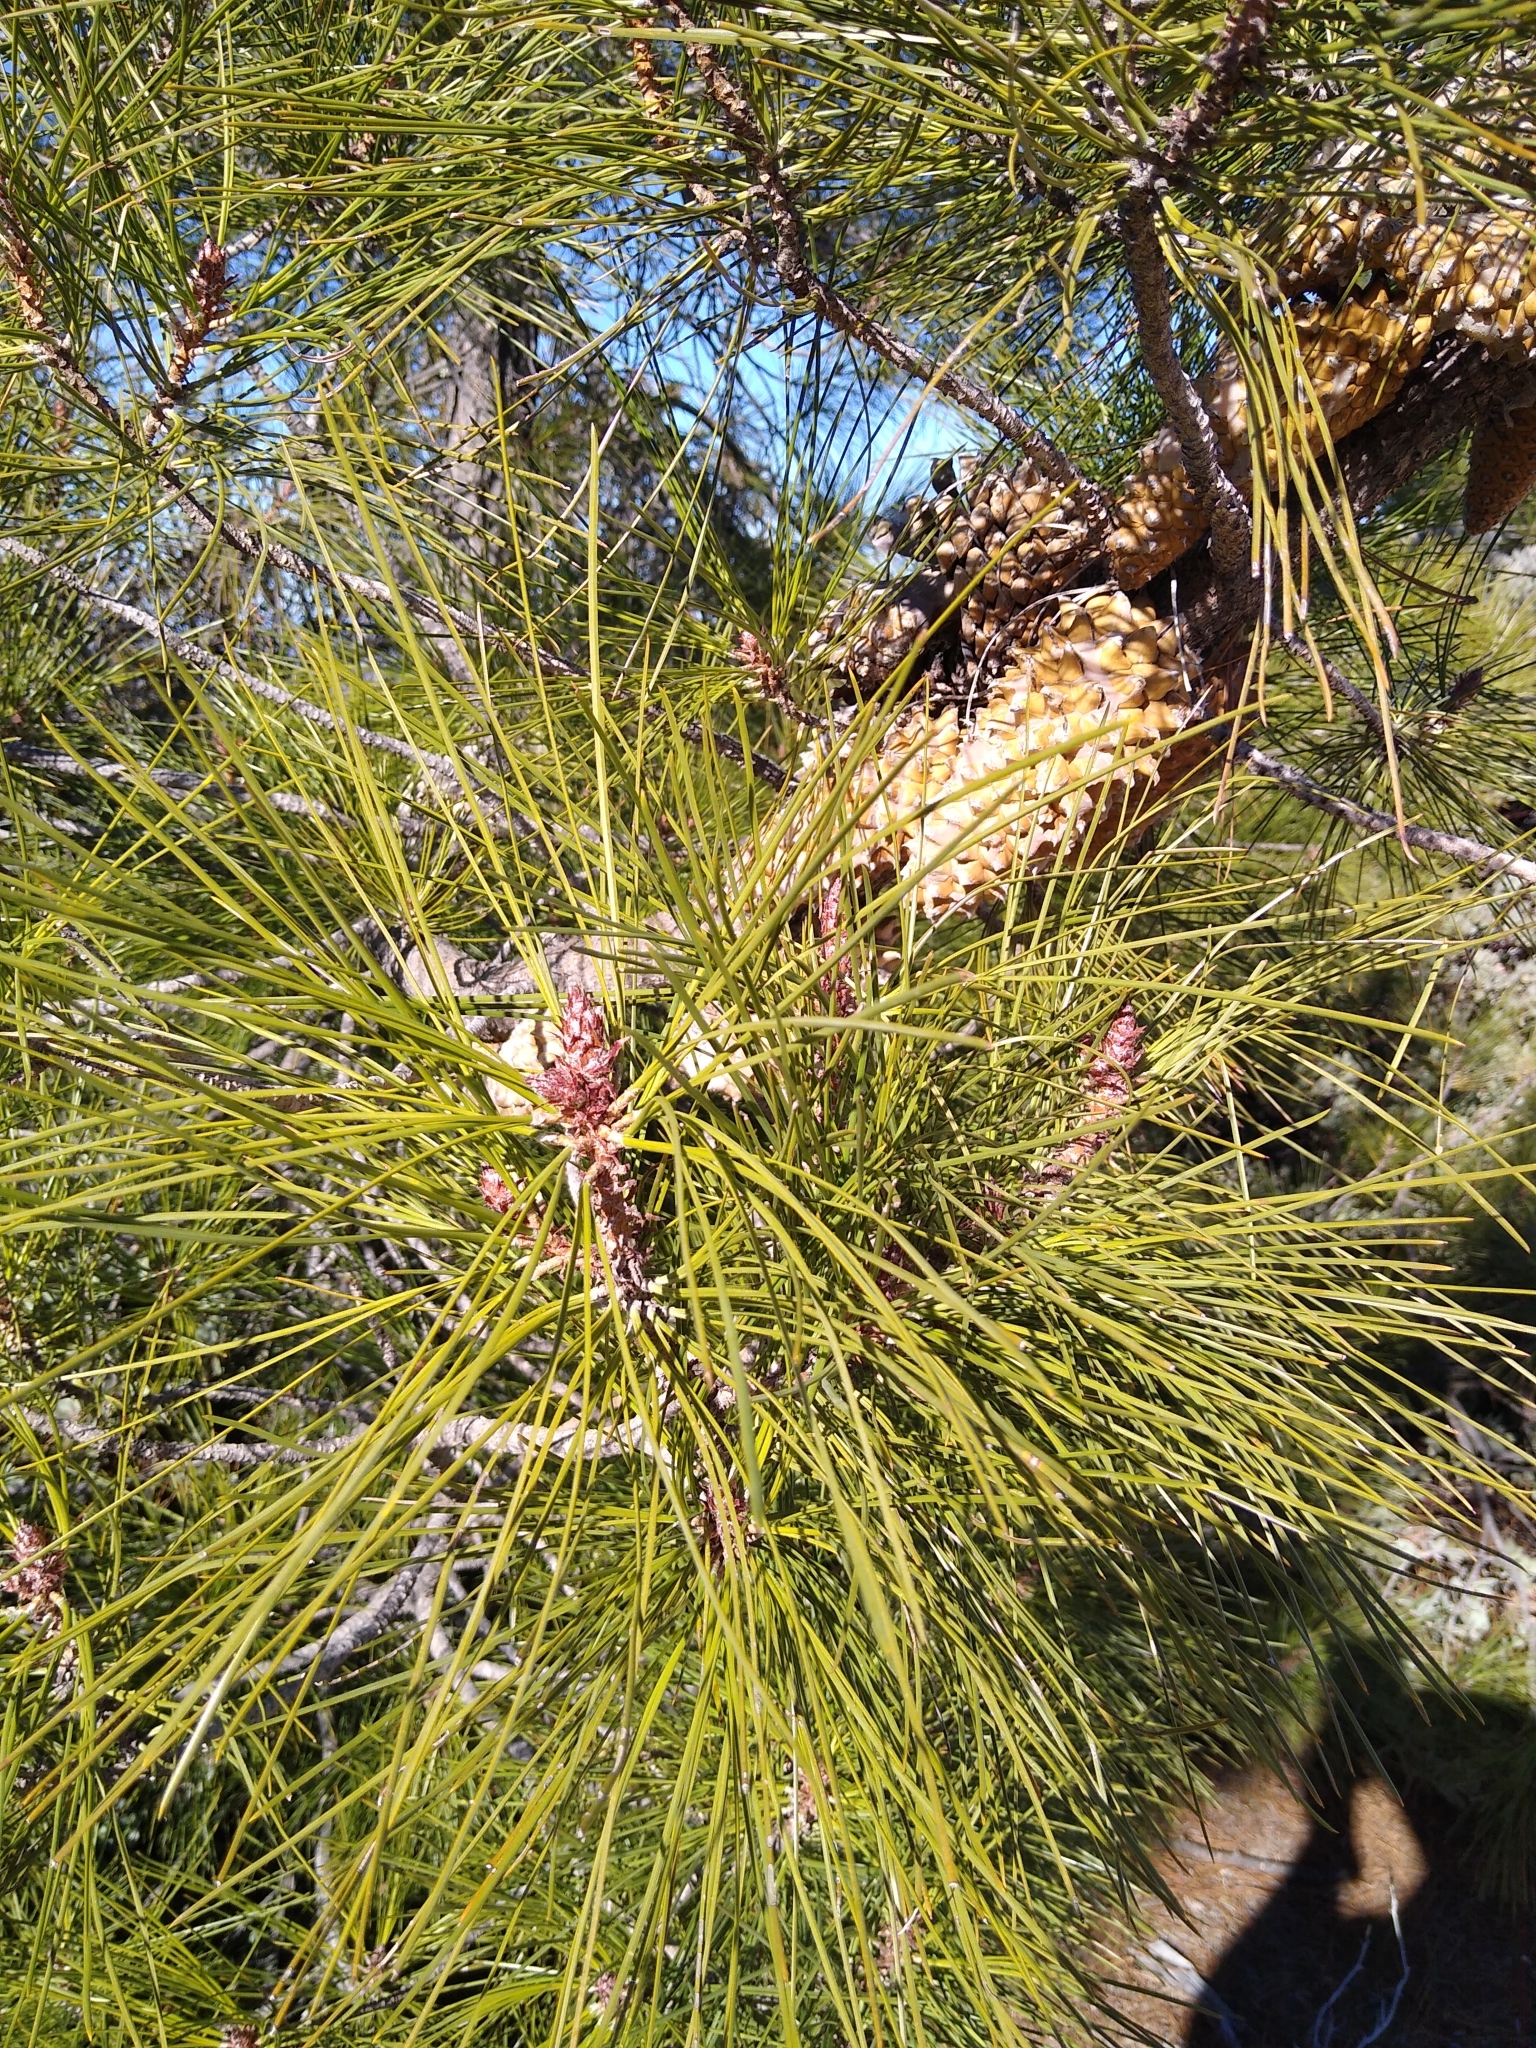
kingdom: Plantae
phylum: Tracheophyta
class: Pinopsida
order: Pinales
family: Pinaceae
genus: Pinus
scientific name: Pinus attenuata
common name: Knobcone pine
